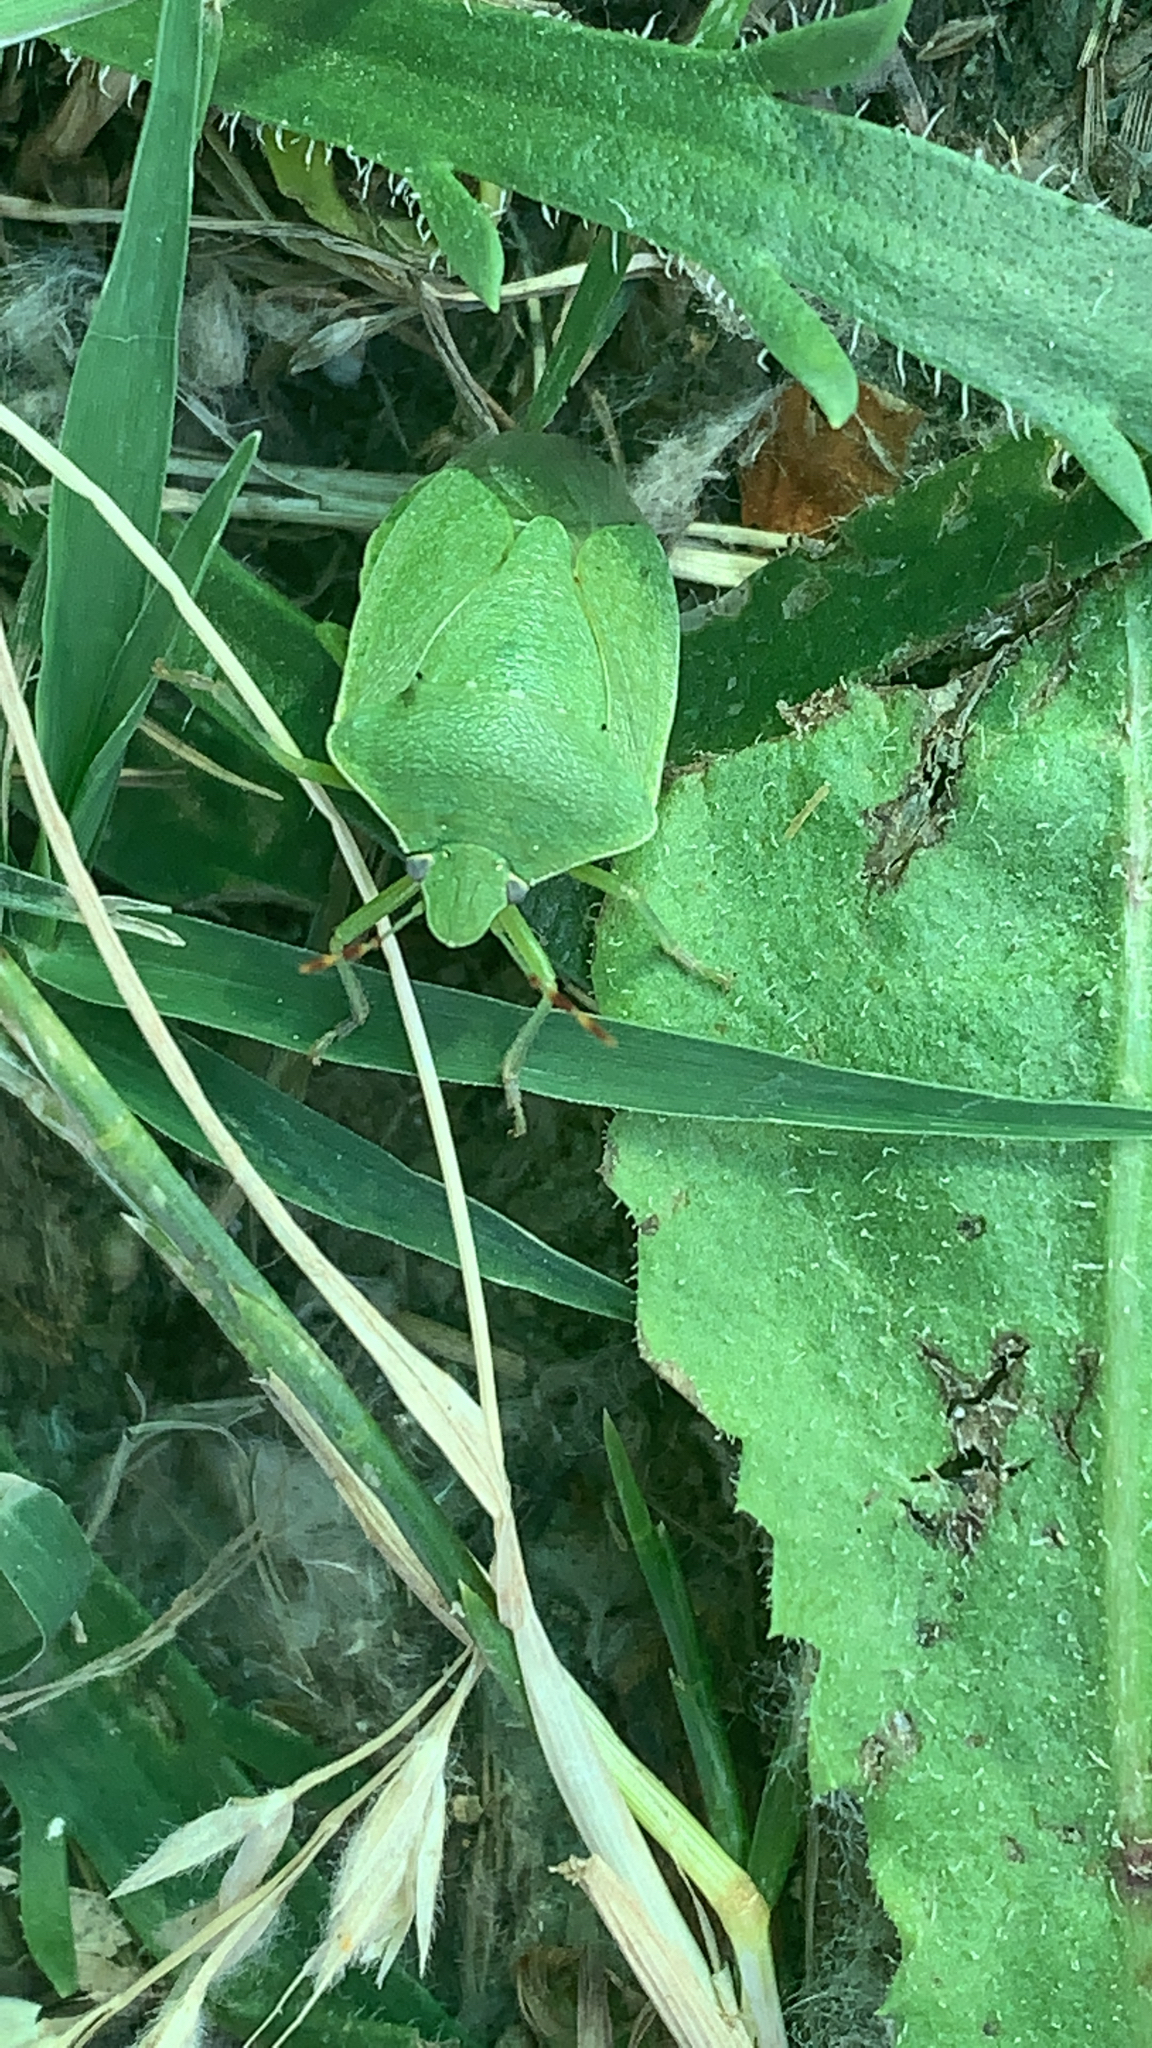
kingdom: Animalia
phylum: Arthropoda
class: Insecta
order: Hemiptera
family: Pentatomidae
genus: Nezara
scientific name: Nezara viridula
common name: Southern green stink bug
